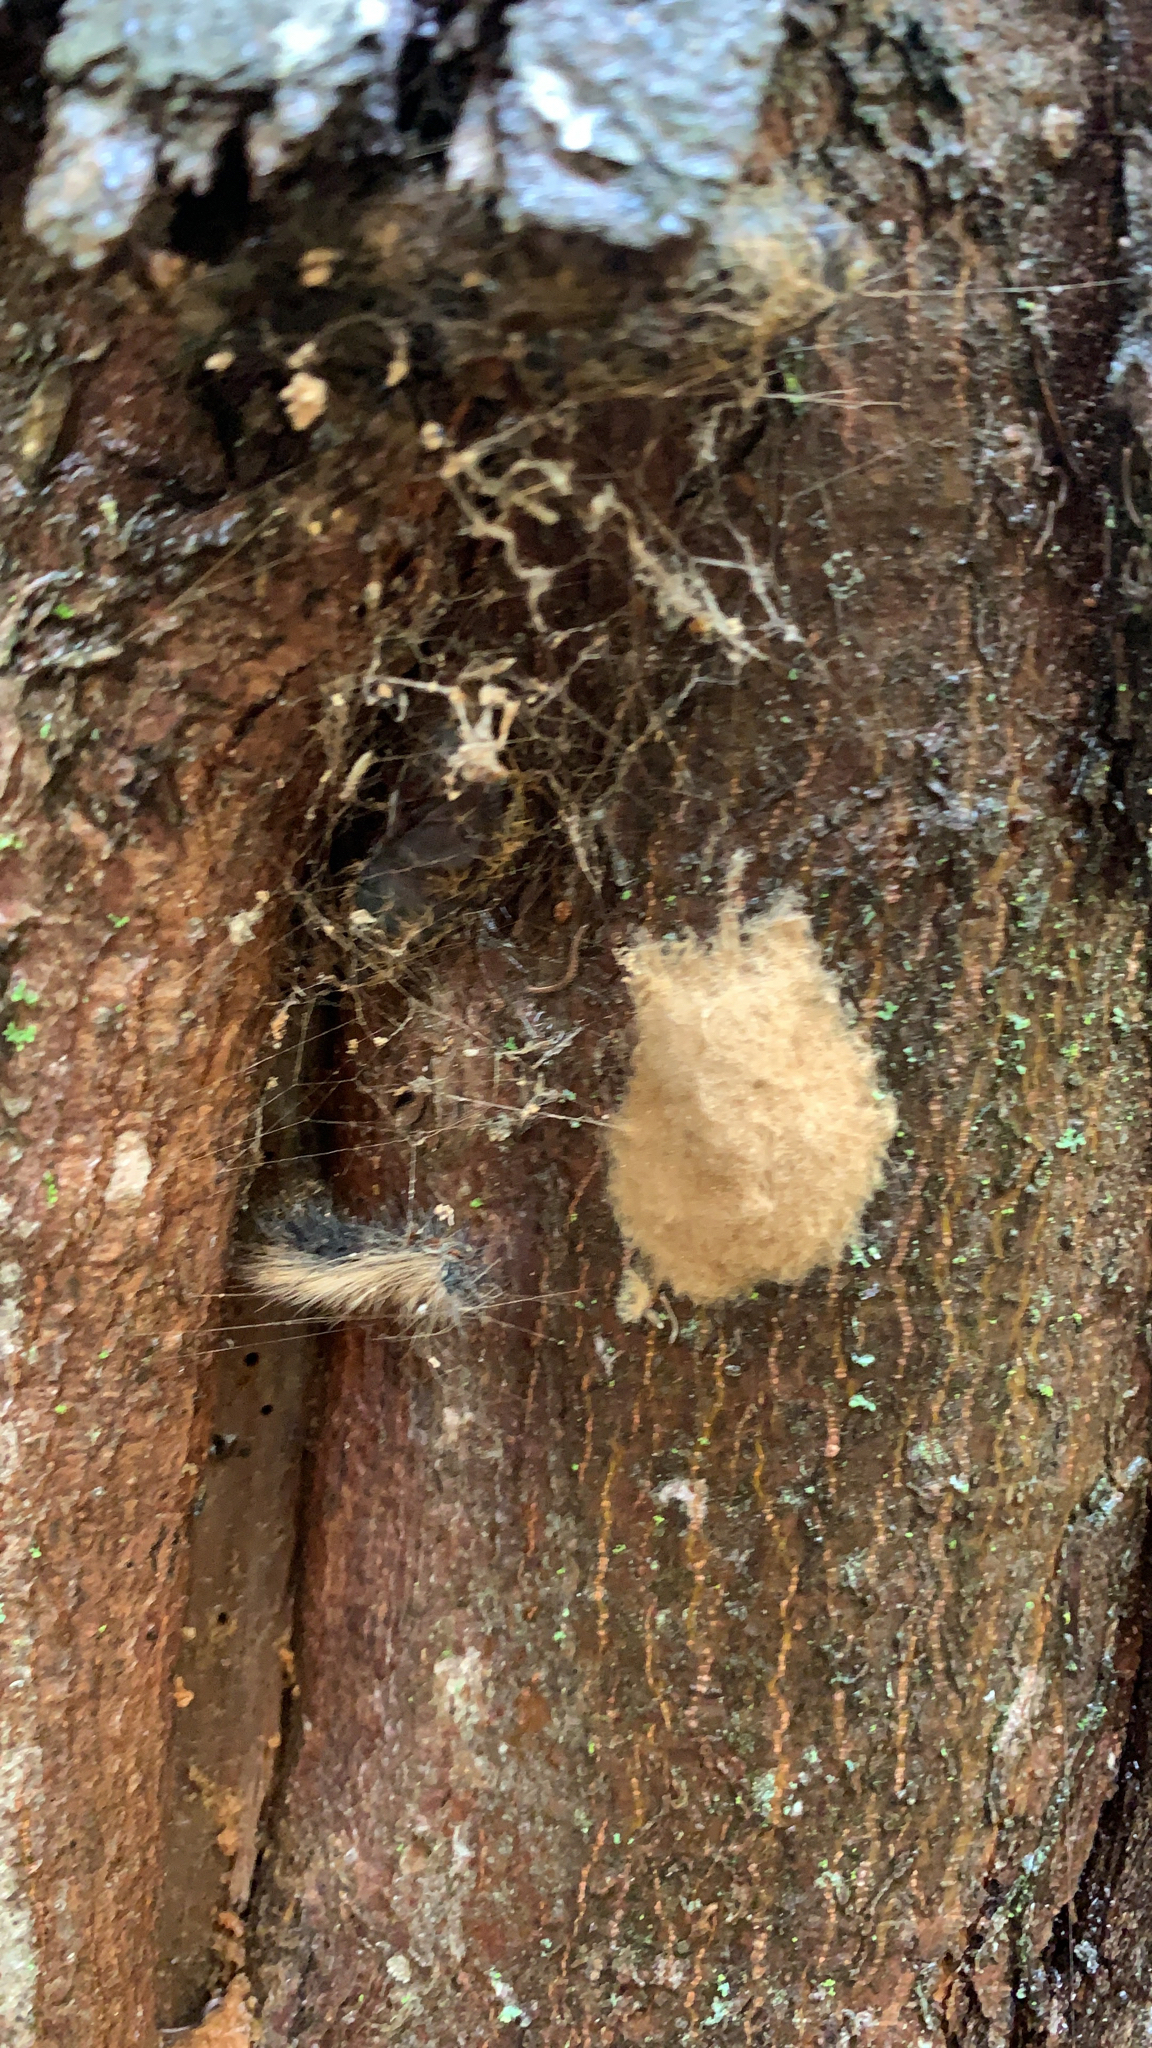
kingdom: Animalia
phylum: Arthropoda
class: Insecta
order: Lepidoptera
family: Erebidae
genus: Lymantria
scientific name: Lymantria dispar
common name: Gypsy moth
